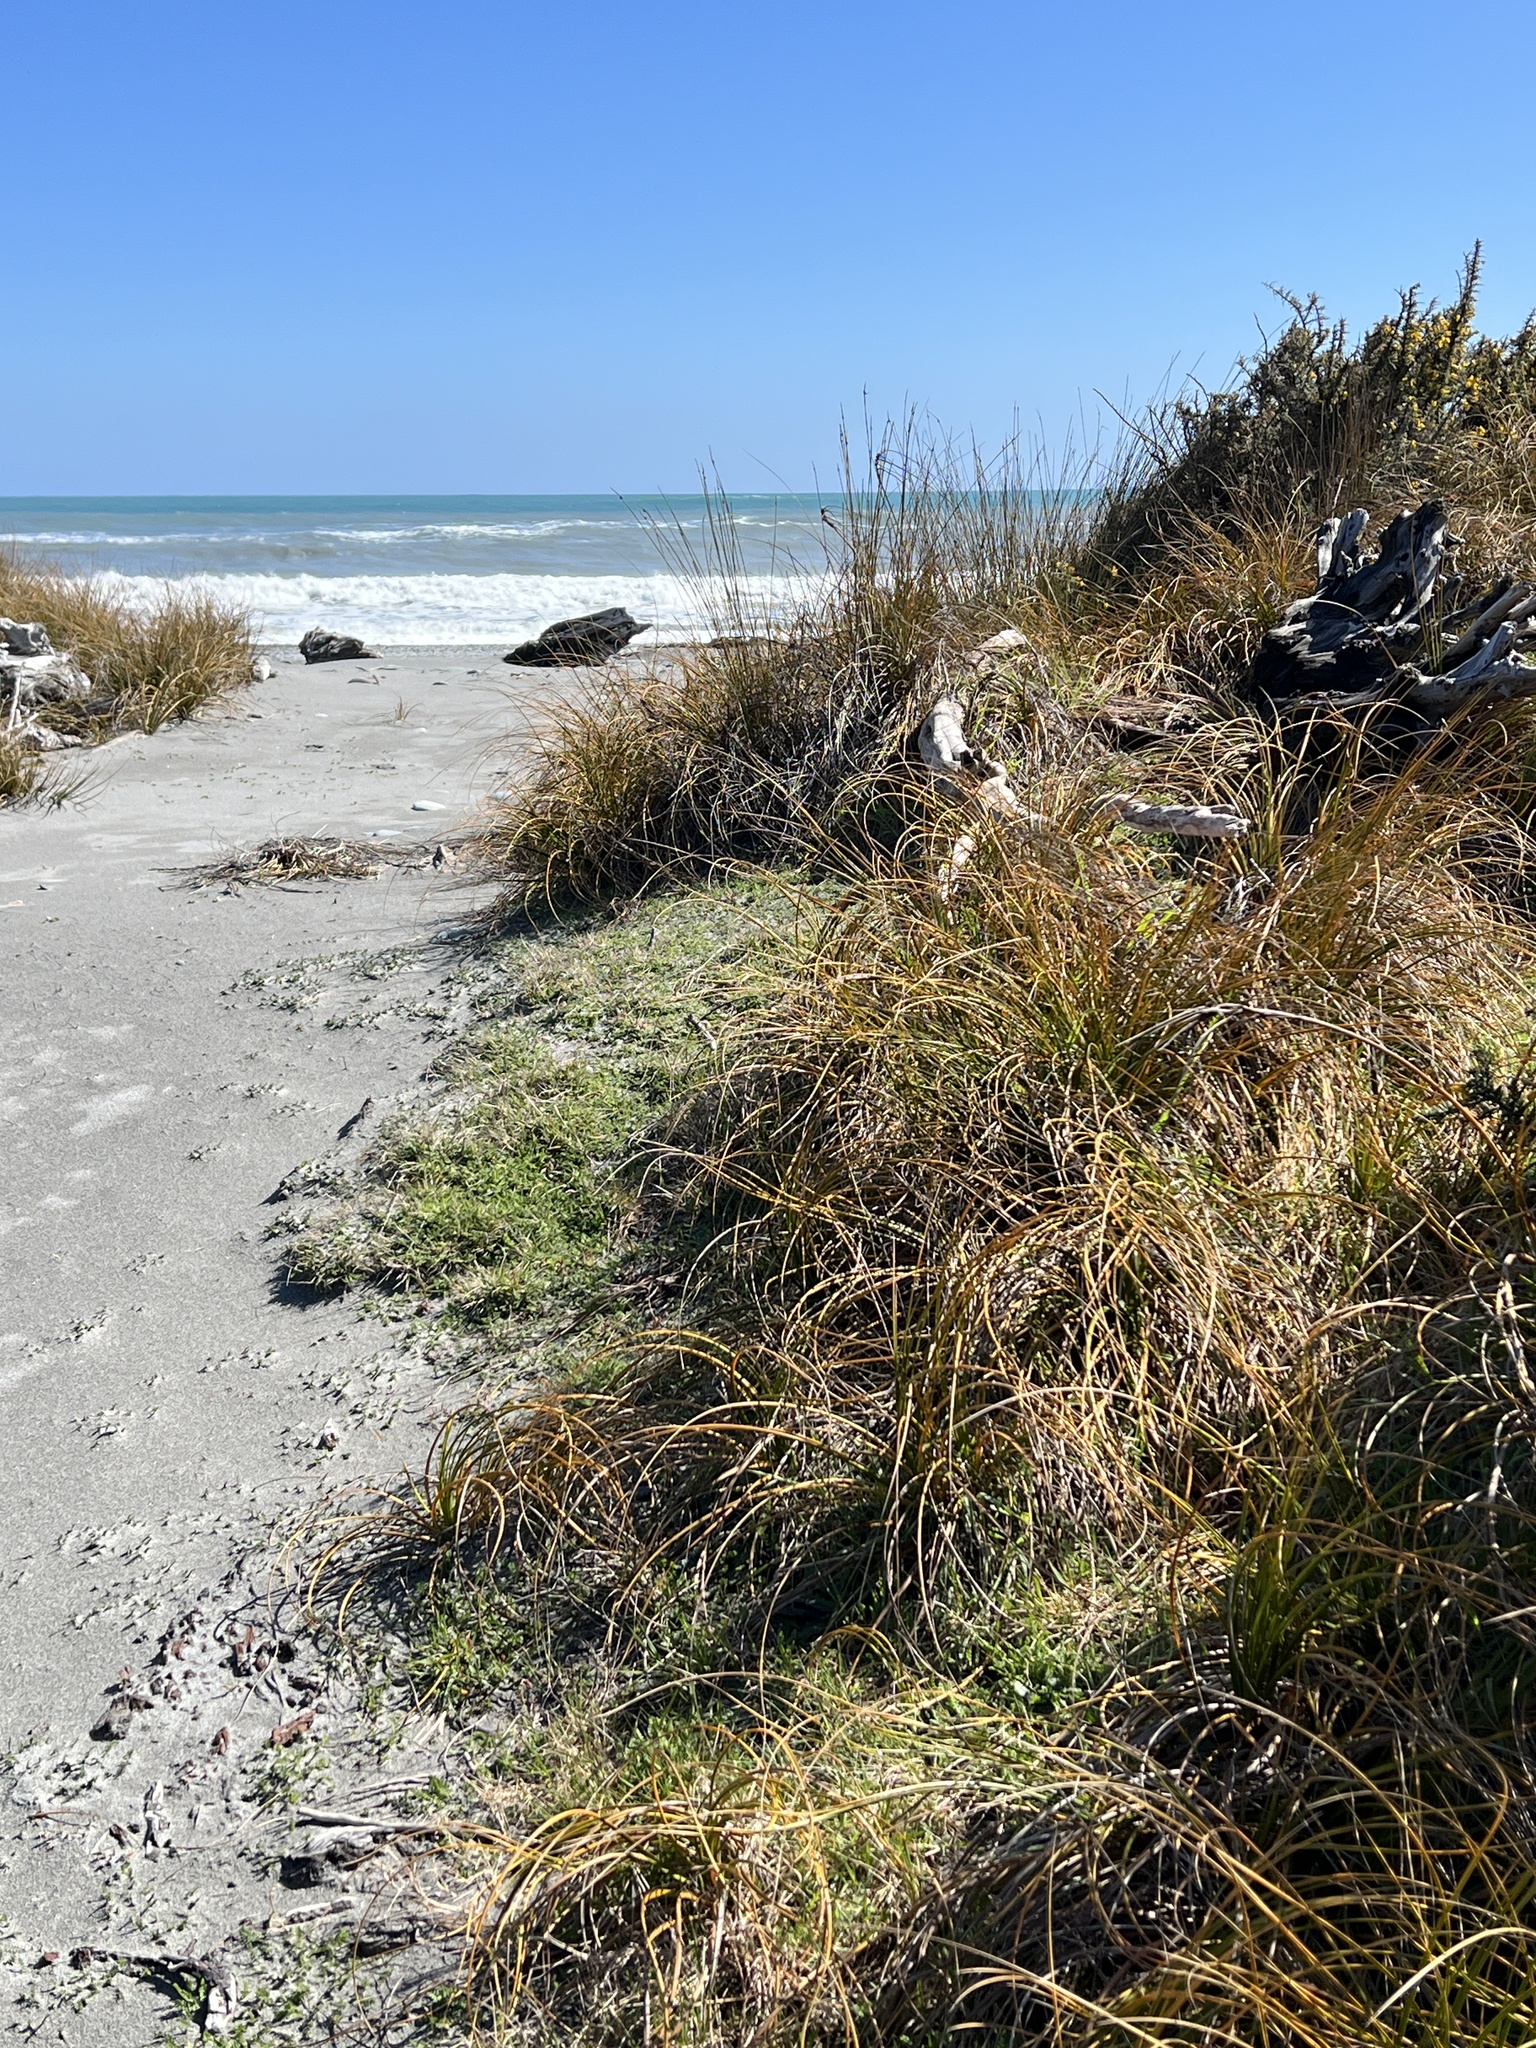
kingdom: Plantae
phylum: Tracheophyta
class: Liliopsida
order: Poales
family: Cyperaceae
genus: Ficinia
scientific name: Ficinia spiralis
